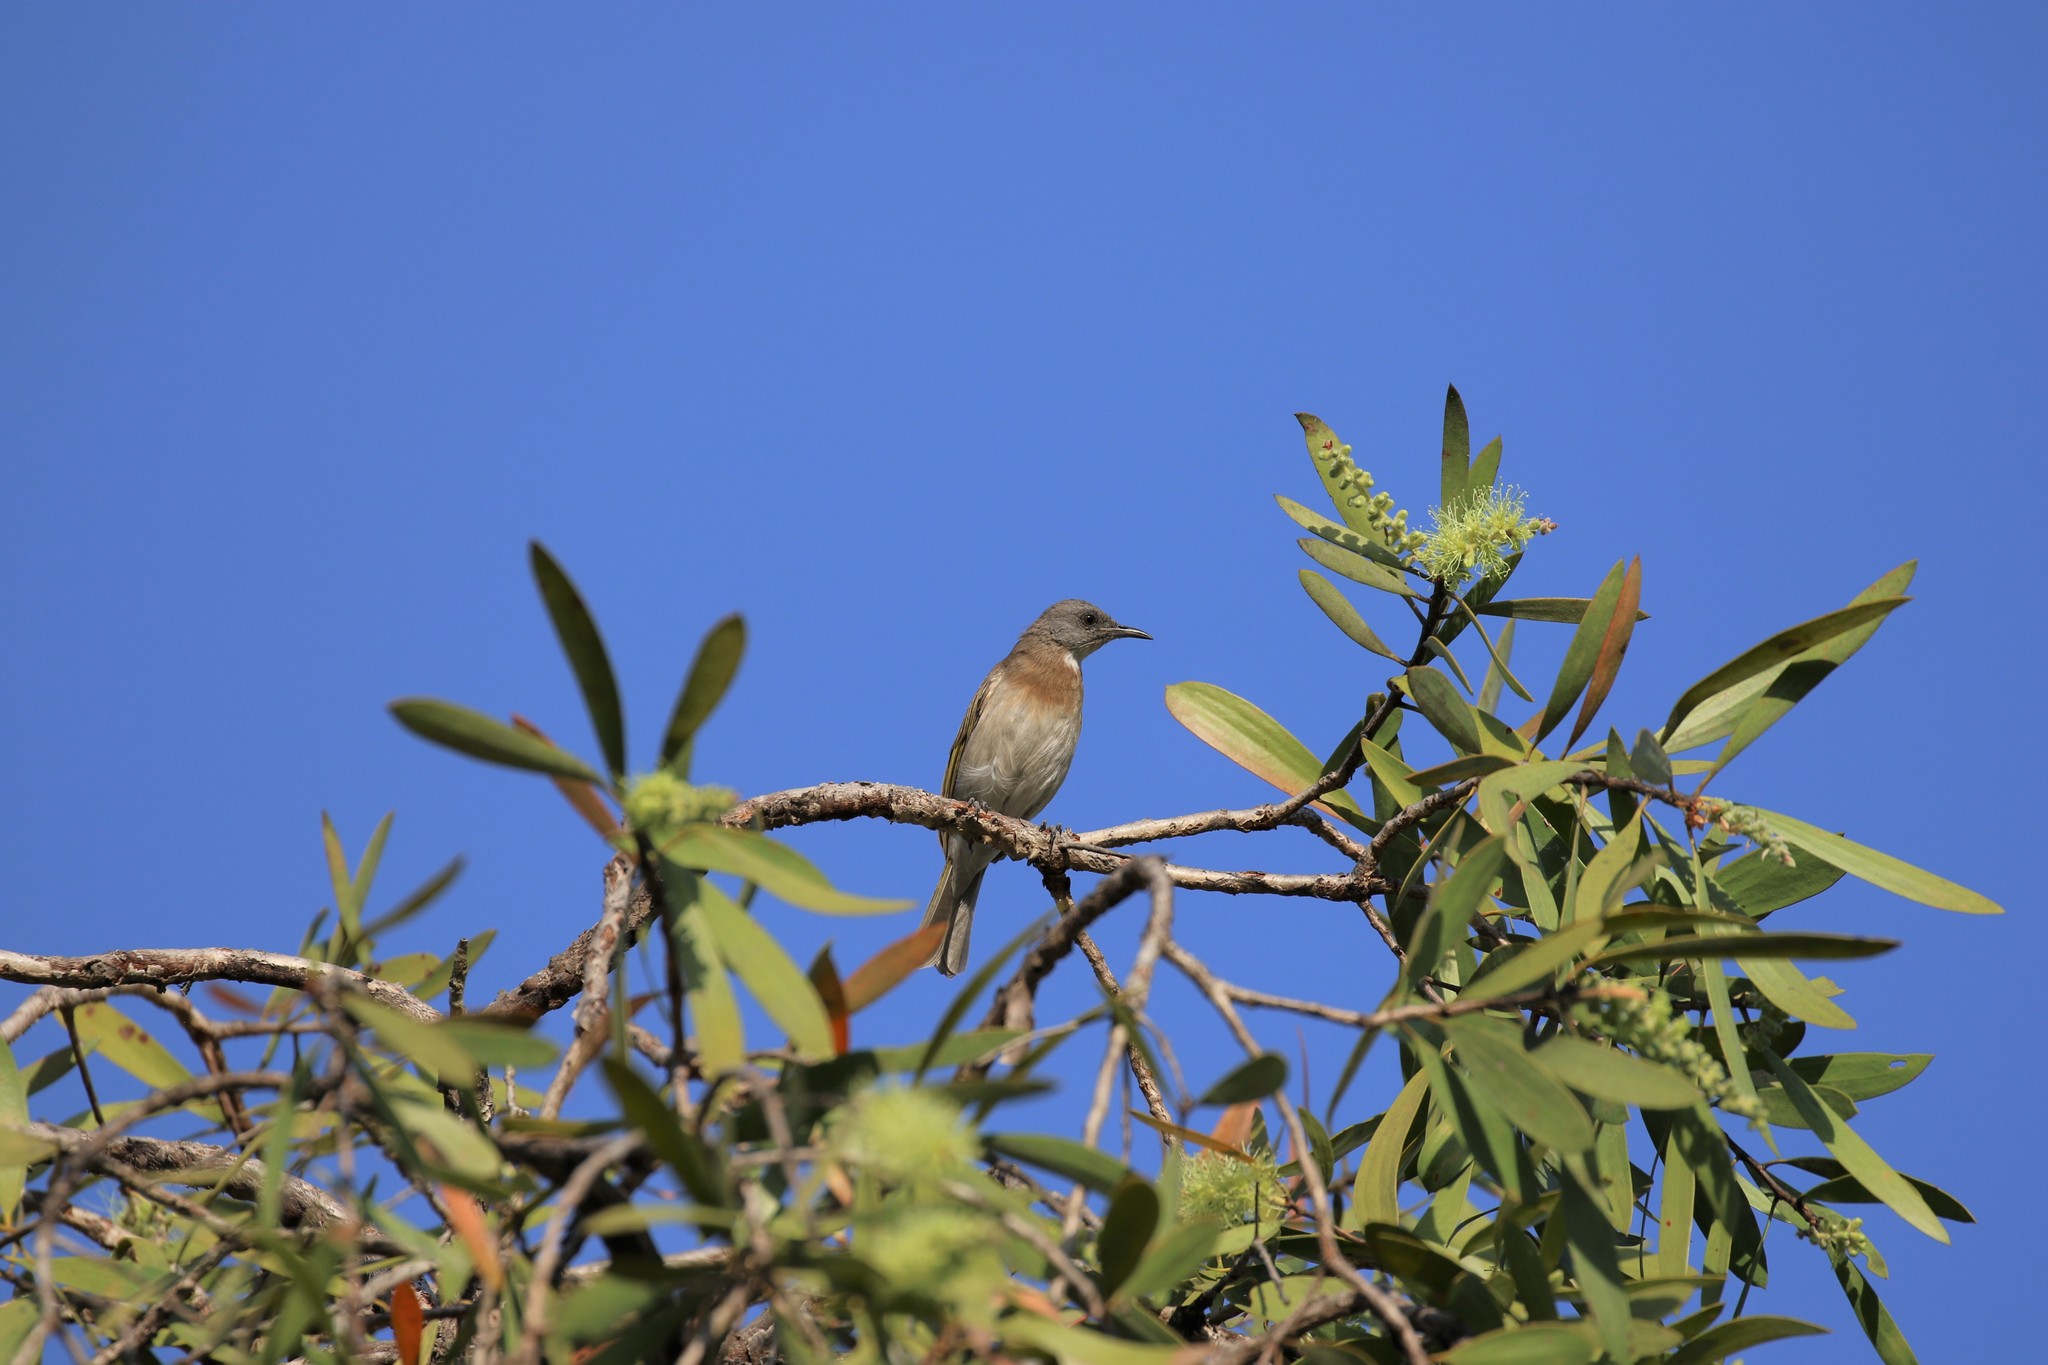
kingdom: Animalia
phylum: Chordata
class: Aves
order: Passeriformes
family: Meliphagidae
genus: Conopophila
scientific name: Conopophila albogularis
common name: Rufous-banded honeyeater
